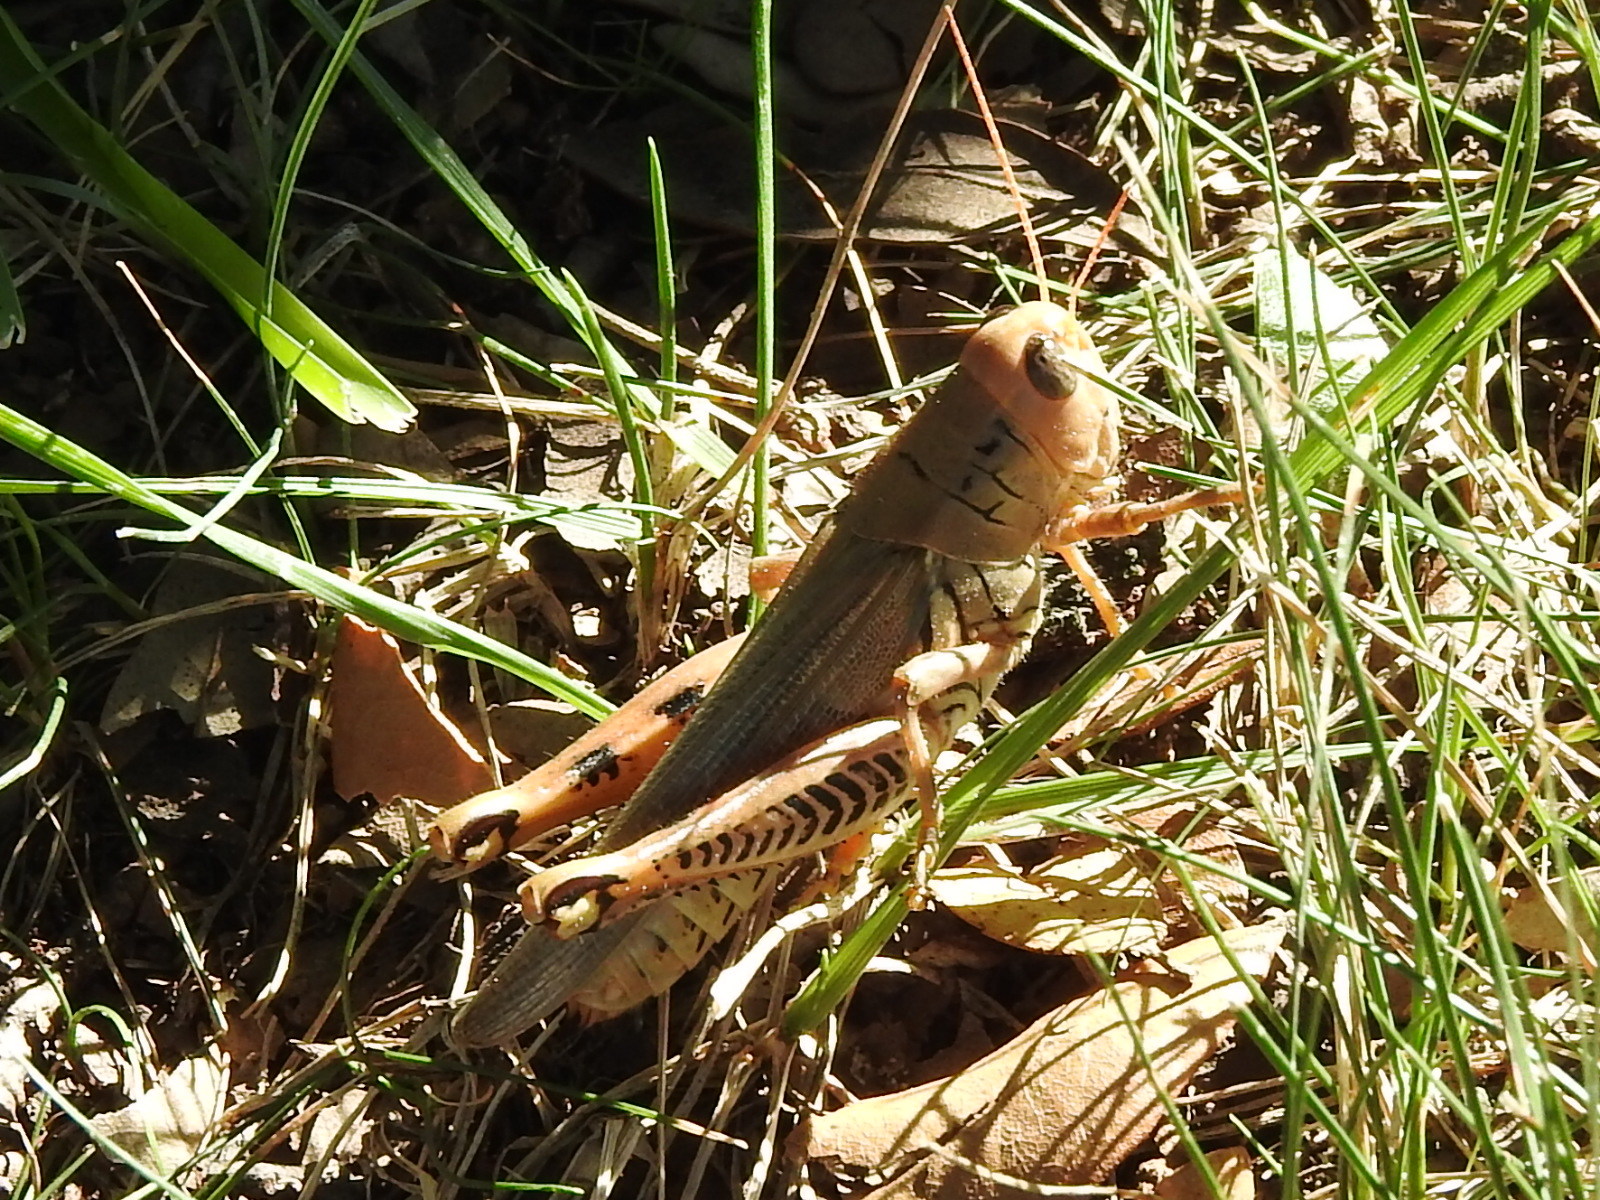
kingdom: Animalia
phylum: Arthropoda
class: Insecta
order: Orthoptera
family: Acrididae
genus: Melanoplus
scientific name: Melanoplus differentialis
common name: Differential grasshopper
